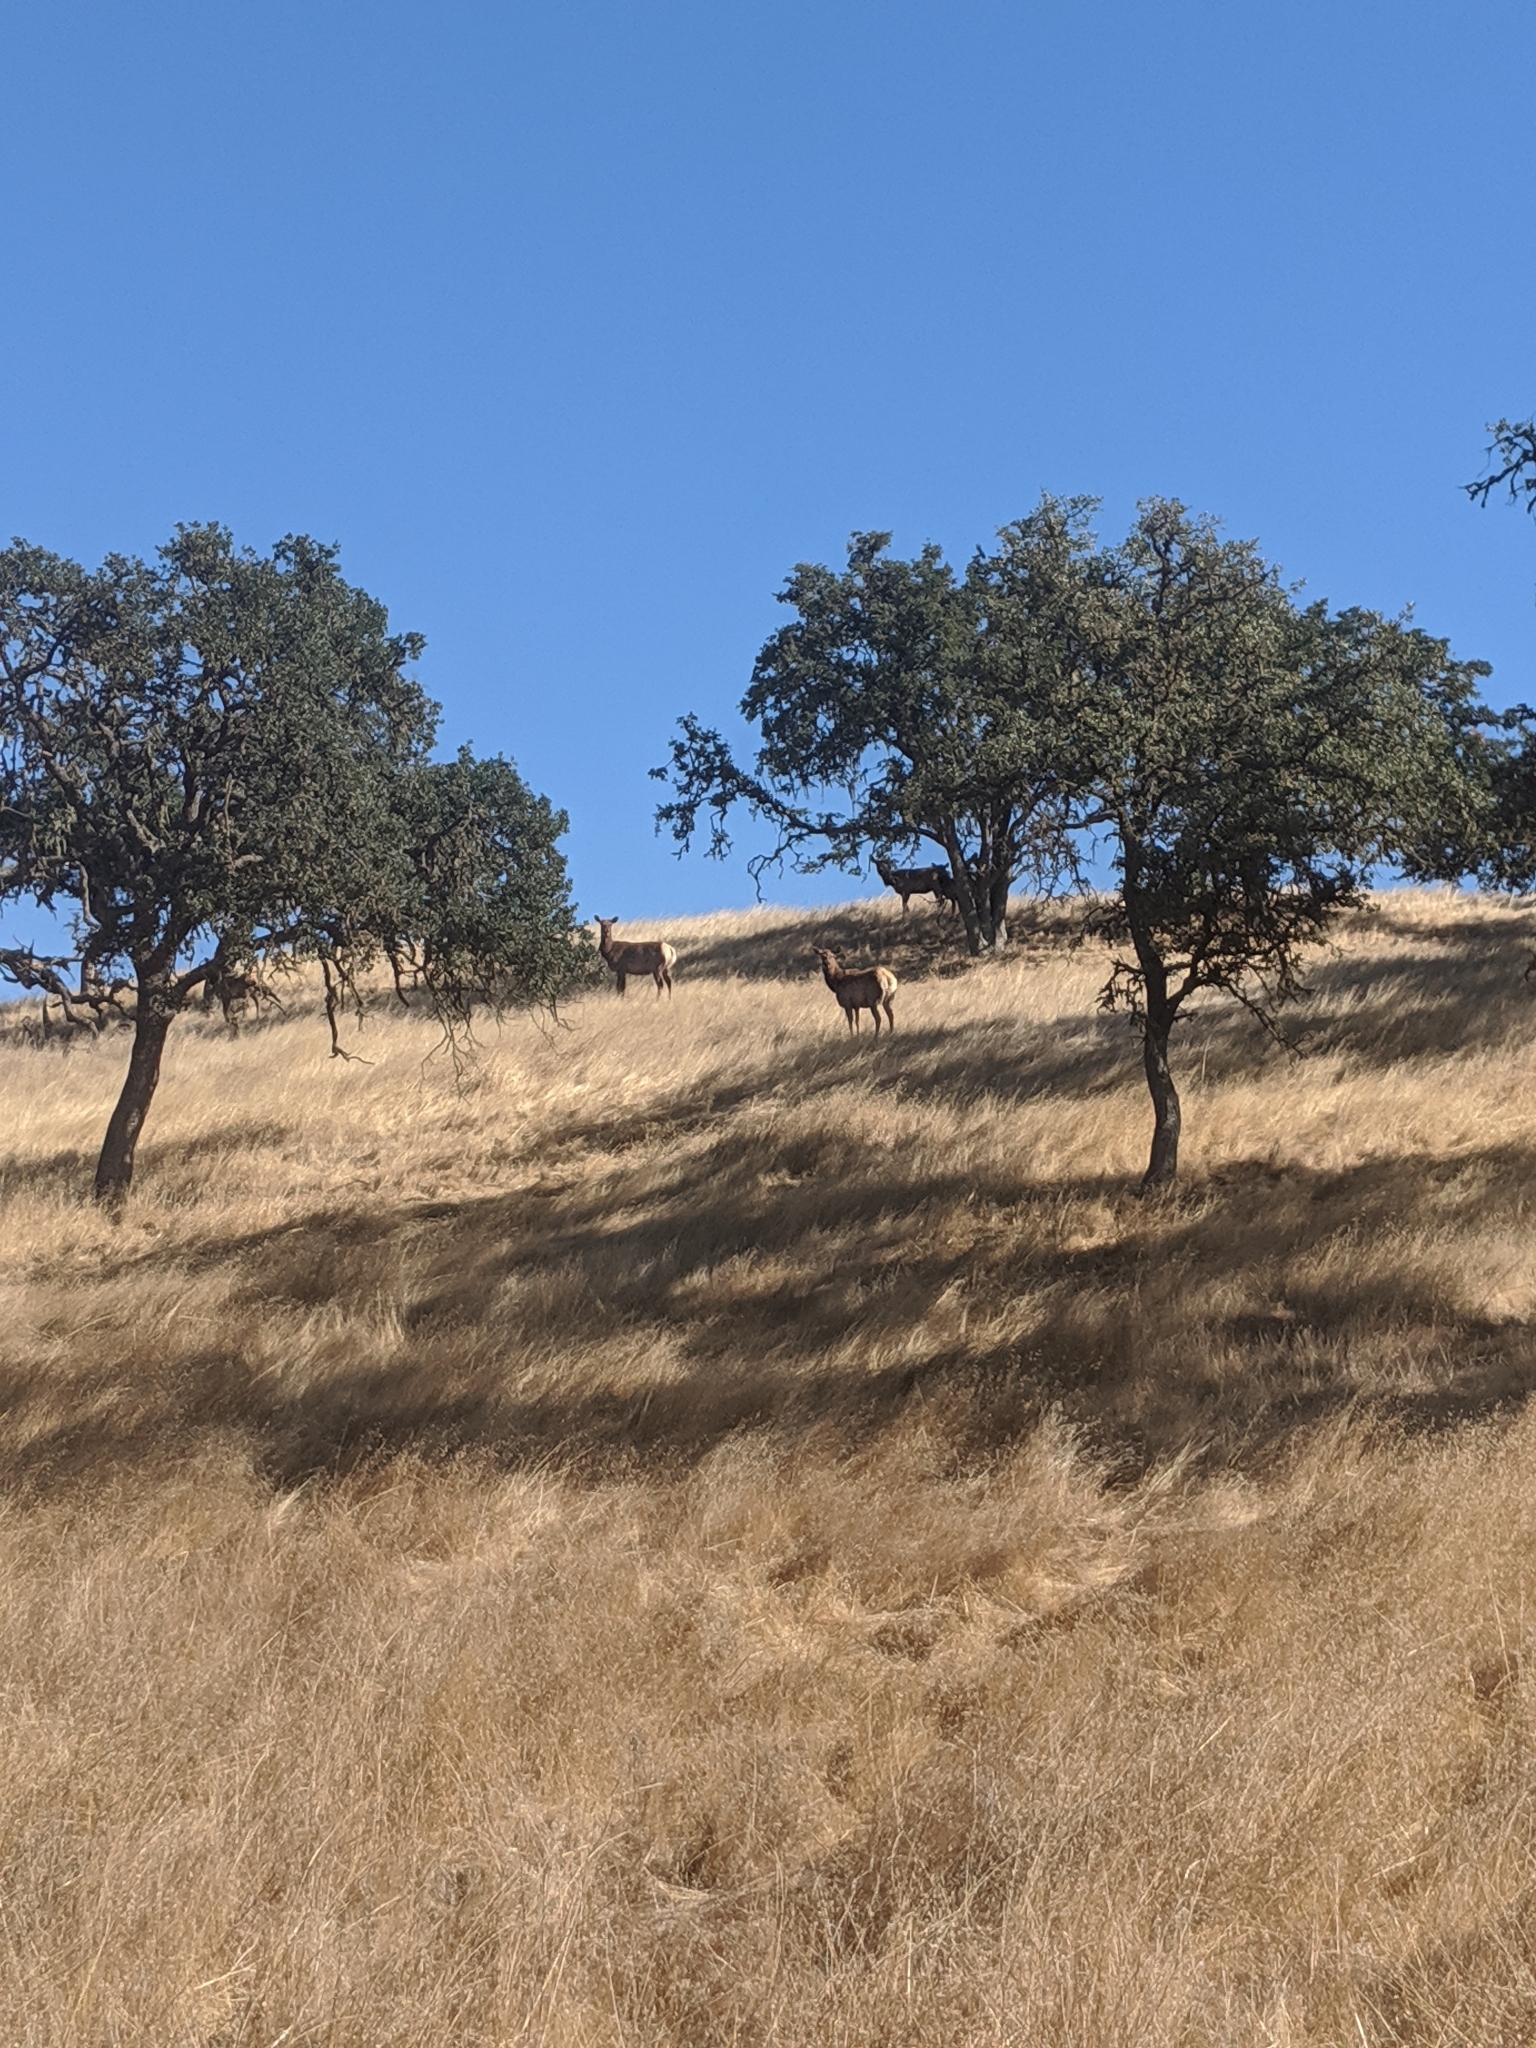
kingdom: Animalia
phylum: Chordata
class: Mammalia
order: Artiodactyla
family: Cervidae
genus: Cervus
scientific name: Cervus elaphus
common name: Red deer
